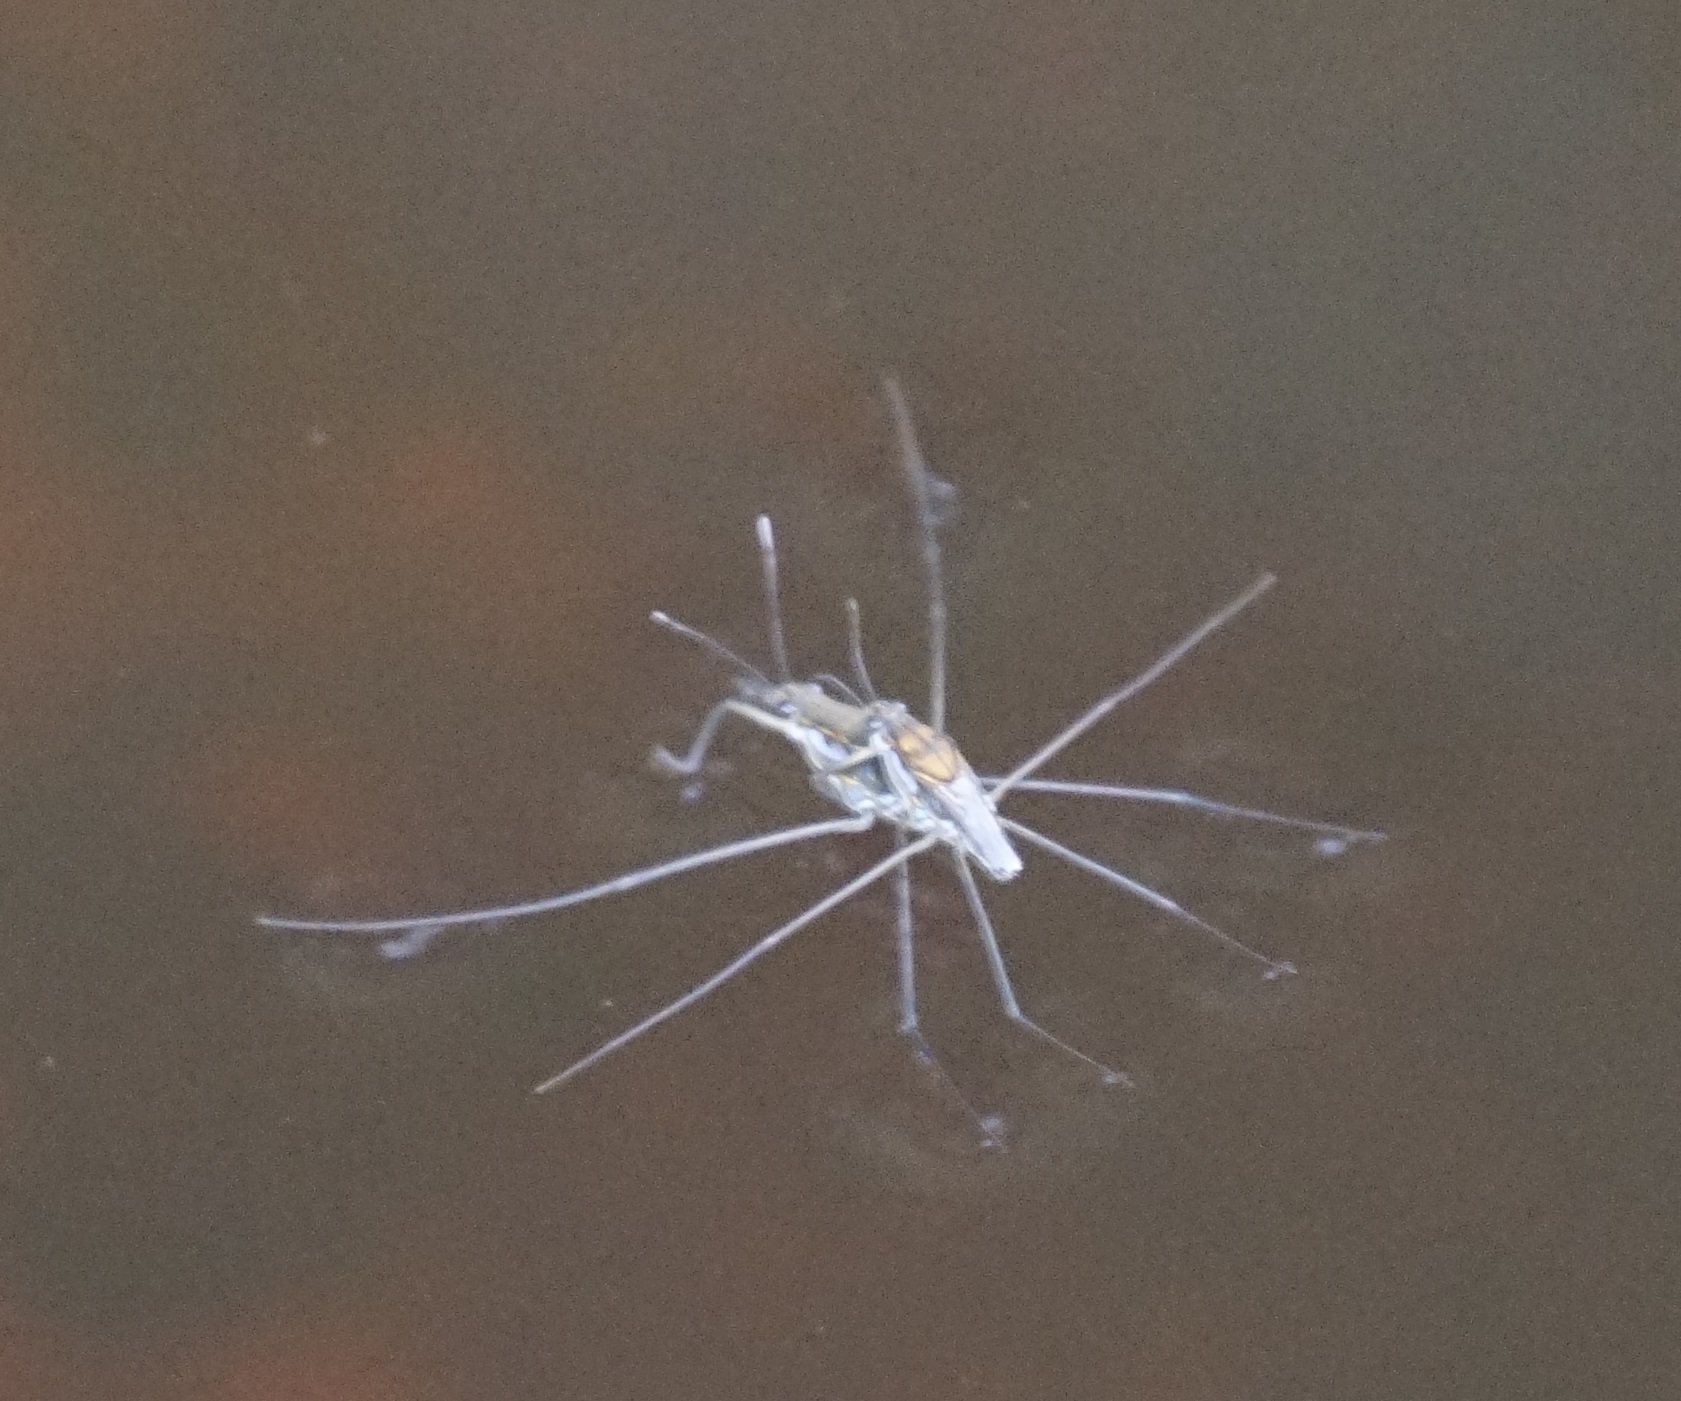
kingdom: Animalia
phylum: Arthropoda
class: Insecta
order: Hemiptera
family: Gerridae
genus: Tenagogerris
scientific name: Tenagogerris euphrosyne
